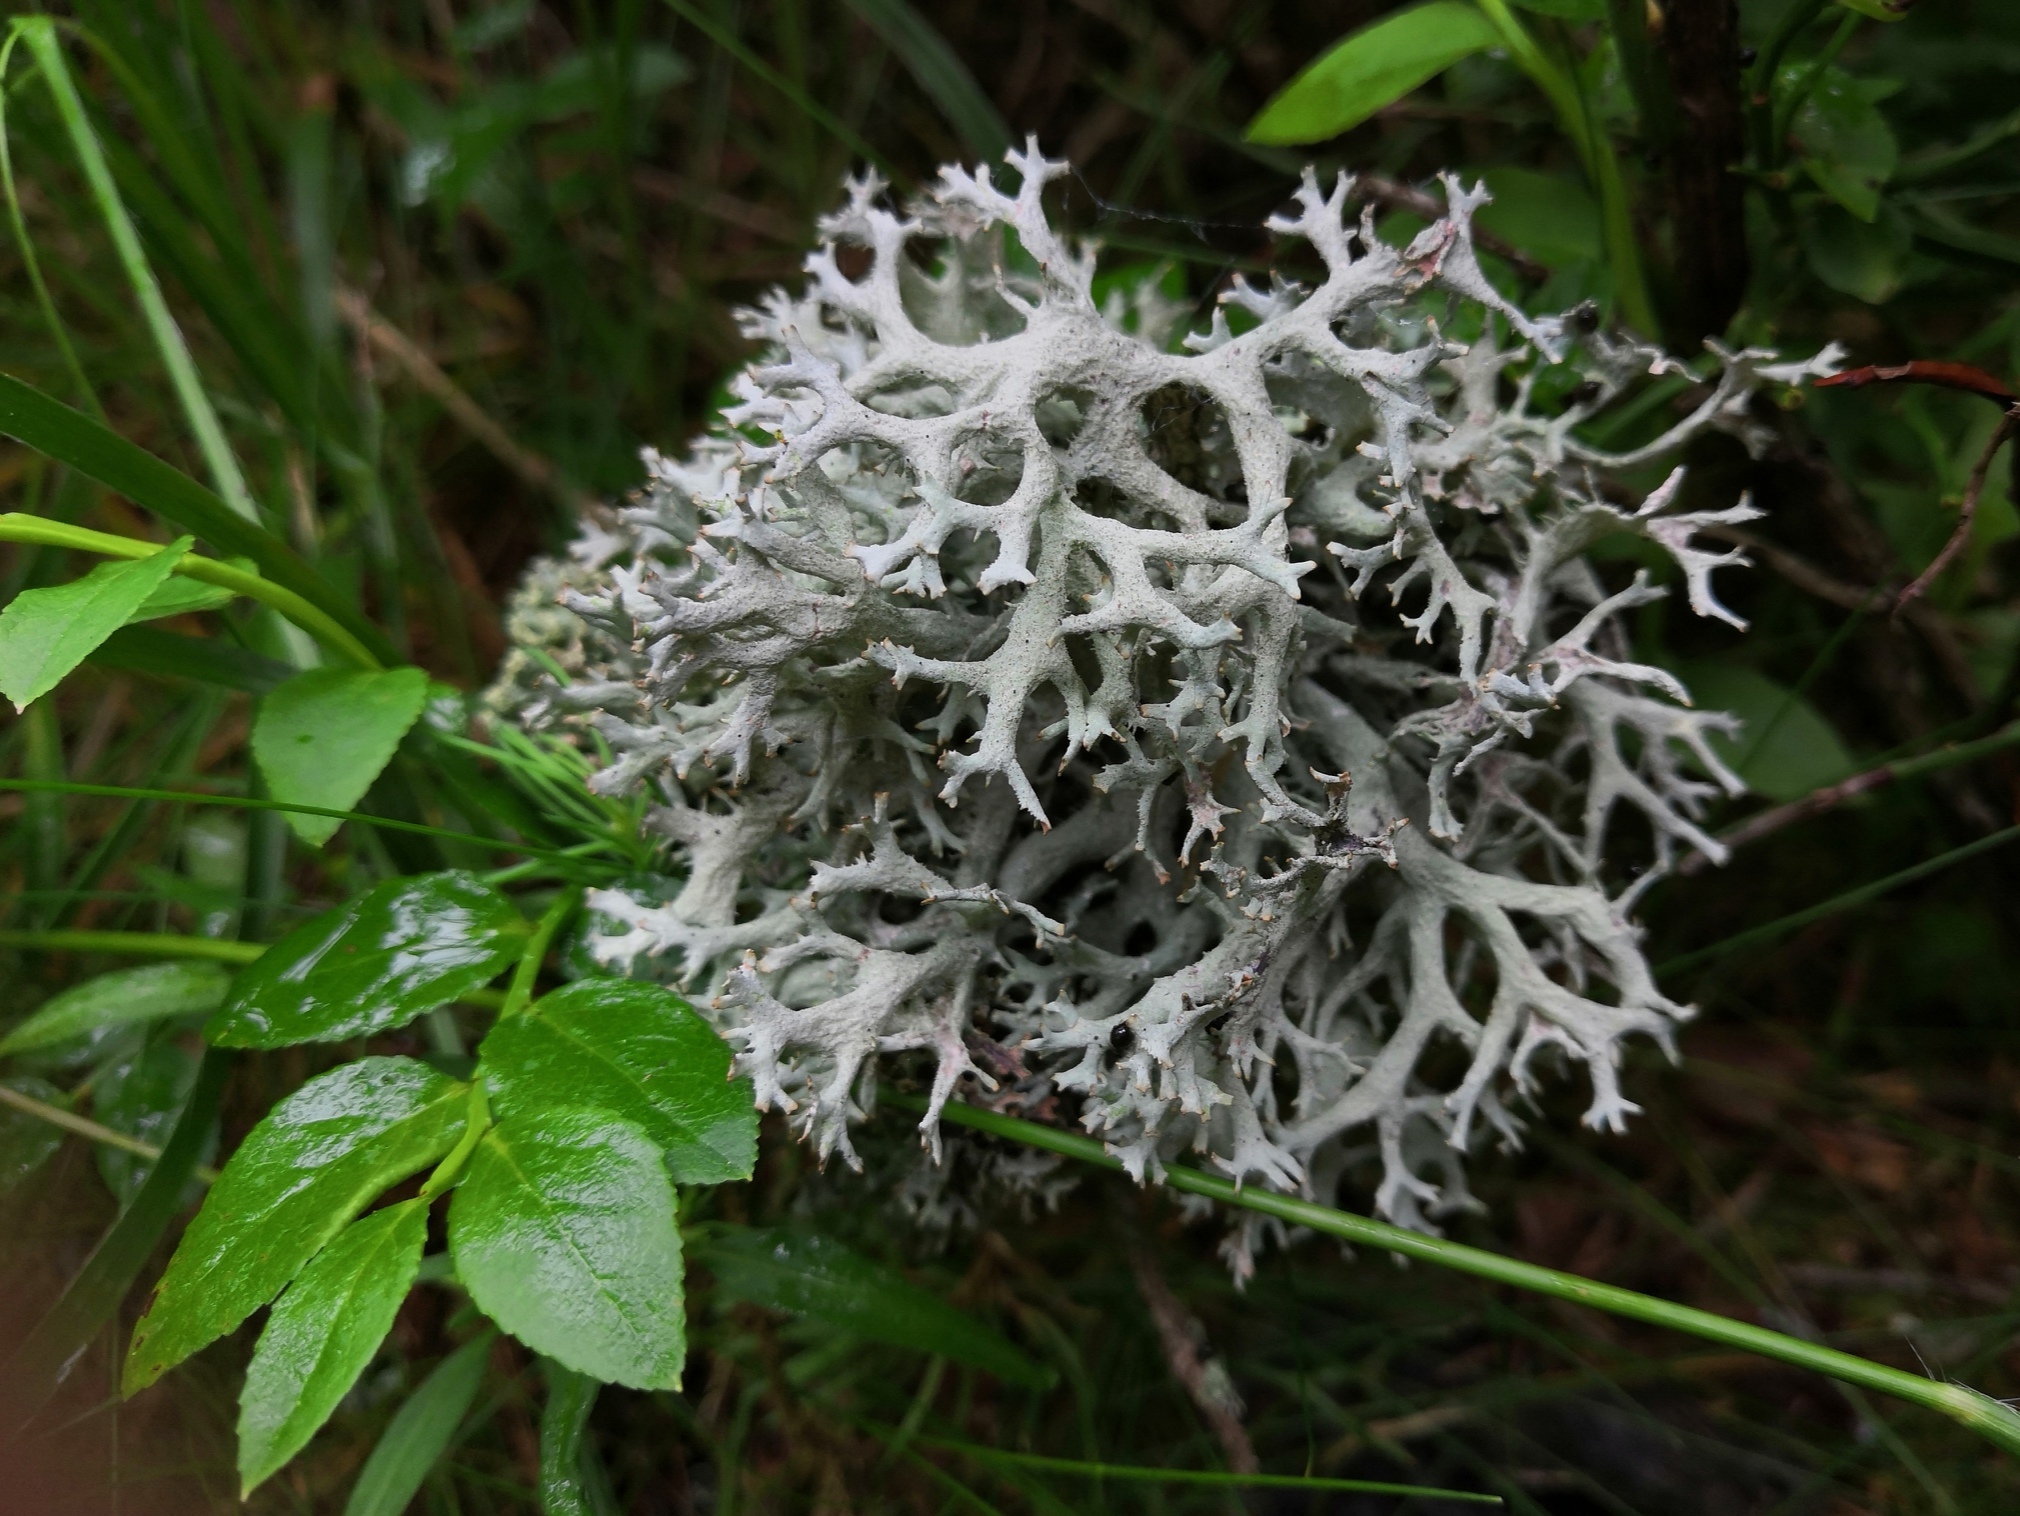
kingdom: Fungi
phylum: Ascomycota
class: Lecanoromycetes
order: Lecanorales
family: Parmeliaceae
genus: Pseudevernia
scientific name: Pseudevernia furfuracea
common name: Tree moss
